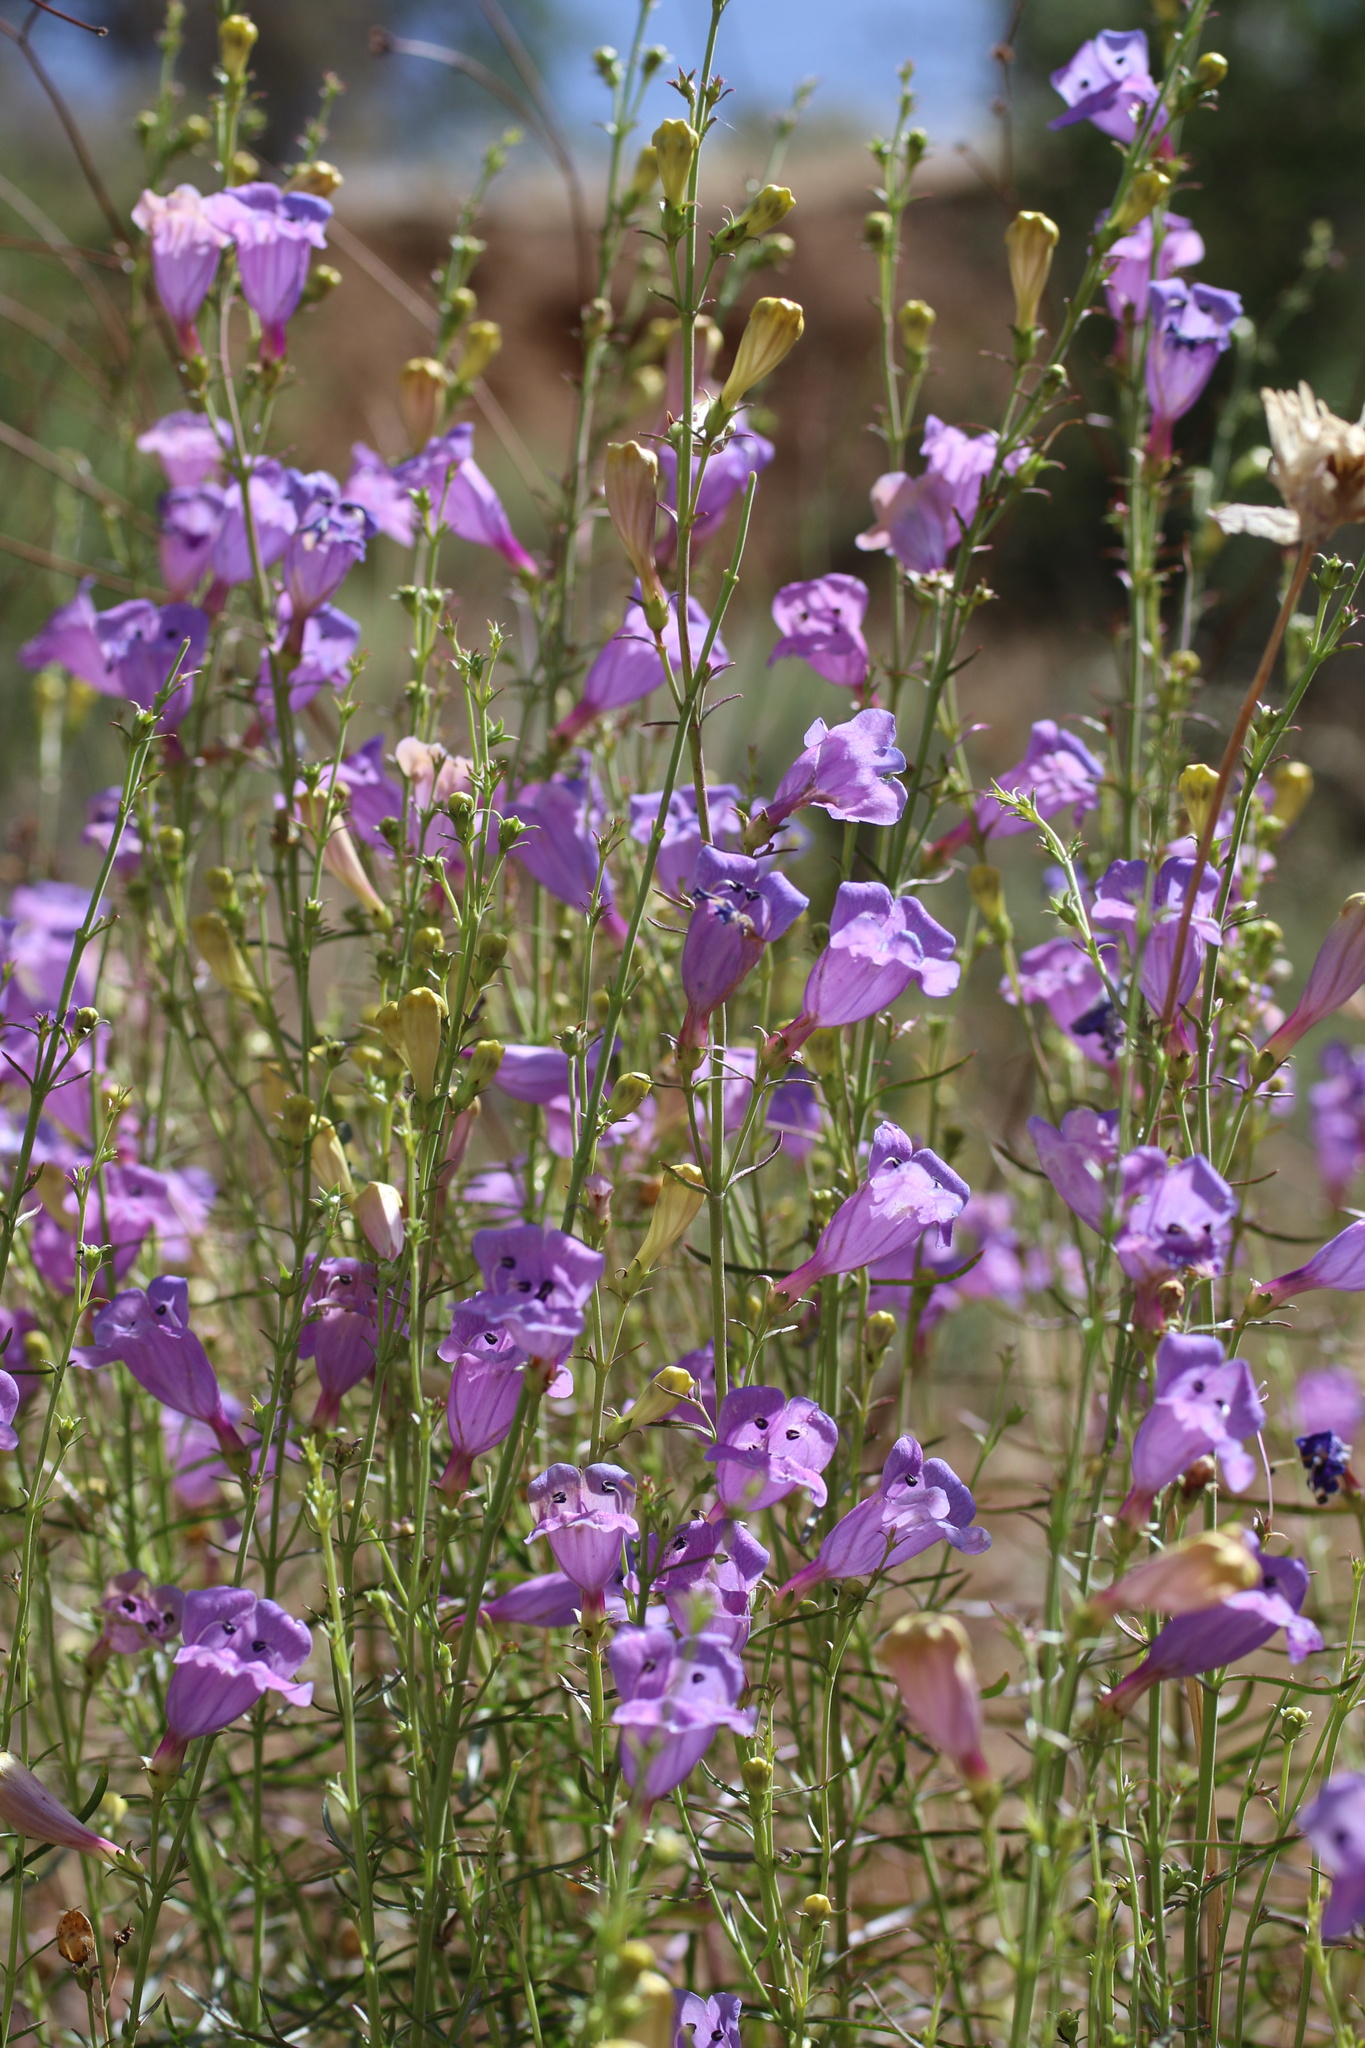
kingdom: Plantae
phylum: Tracheophyta
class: Magnoliopsida
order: Lamiales
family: Plantaginaceae
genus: Penstemon
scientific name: Penstemon heterophyllus
